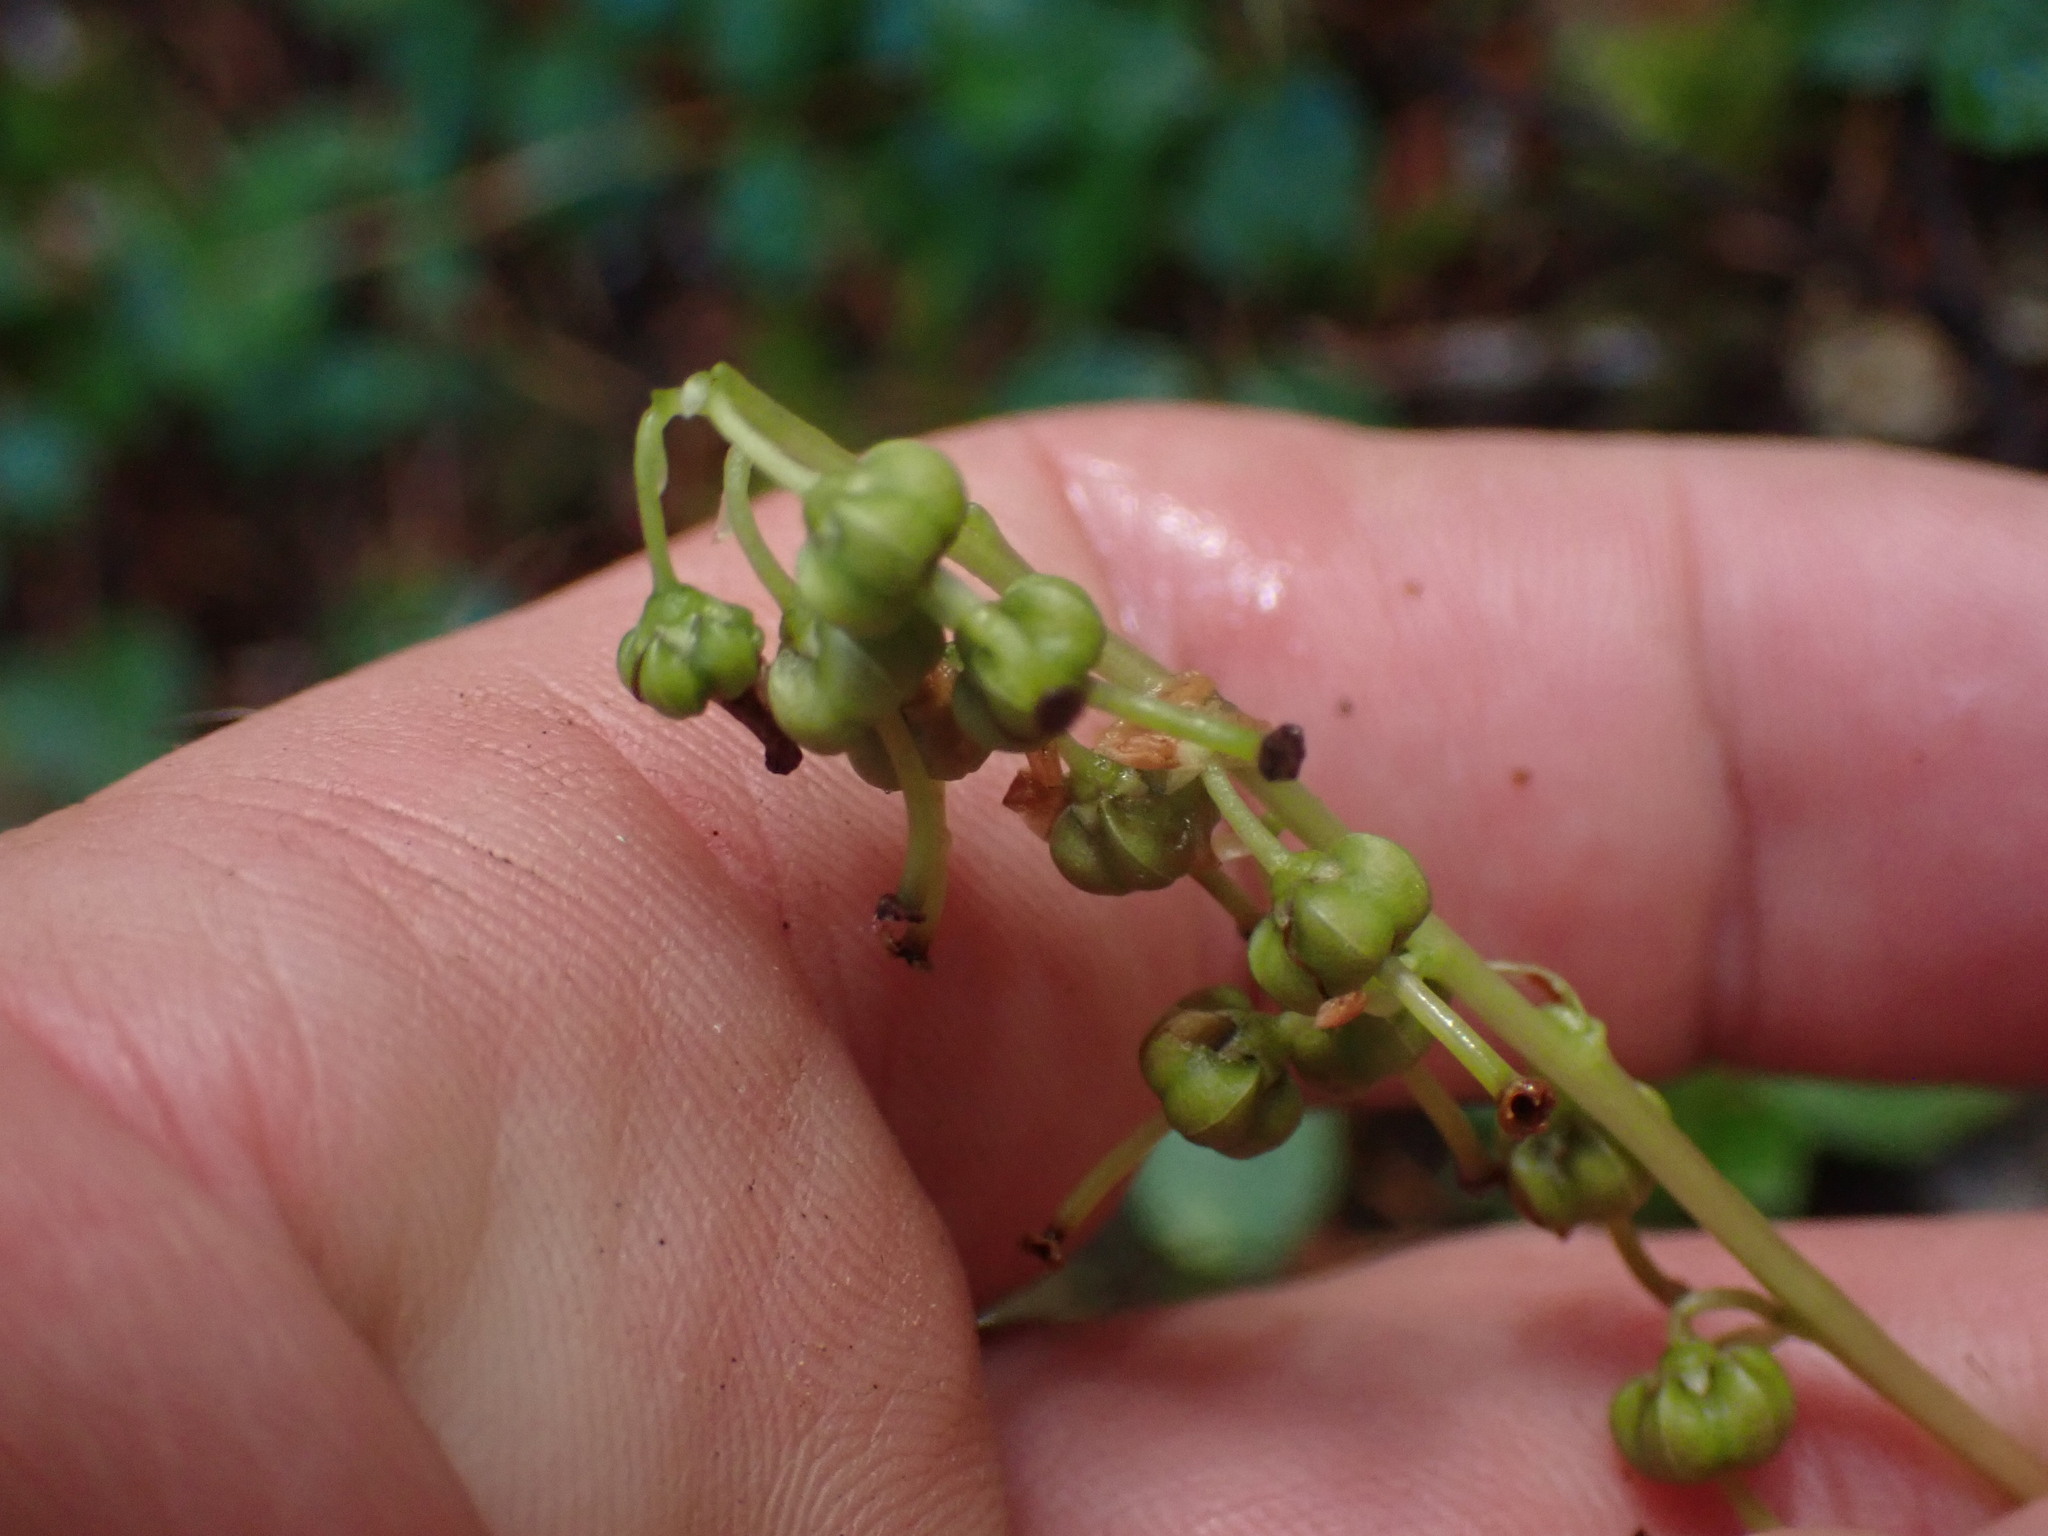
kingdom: Plantae
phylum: Tracheophyta
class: Magnoliopsida
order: Ericales
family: Ericaceae
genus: Orthilia
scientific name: Orthilia secunda
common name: One-sided orthilia
